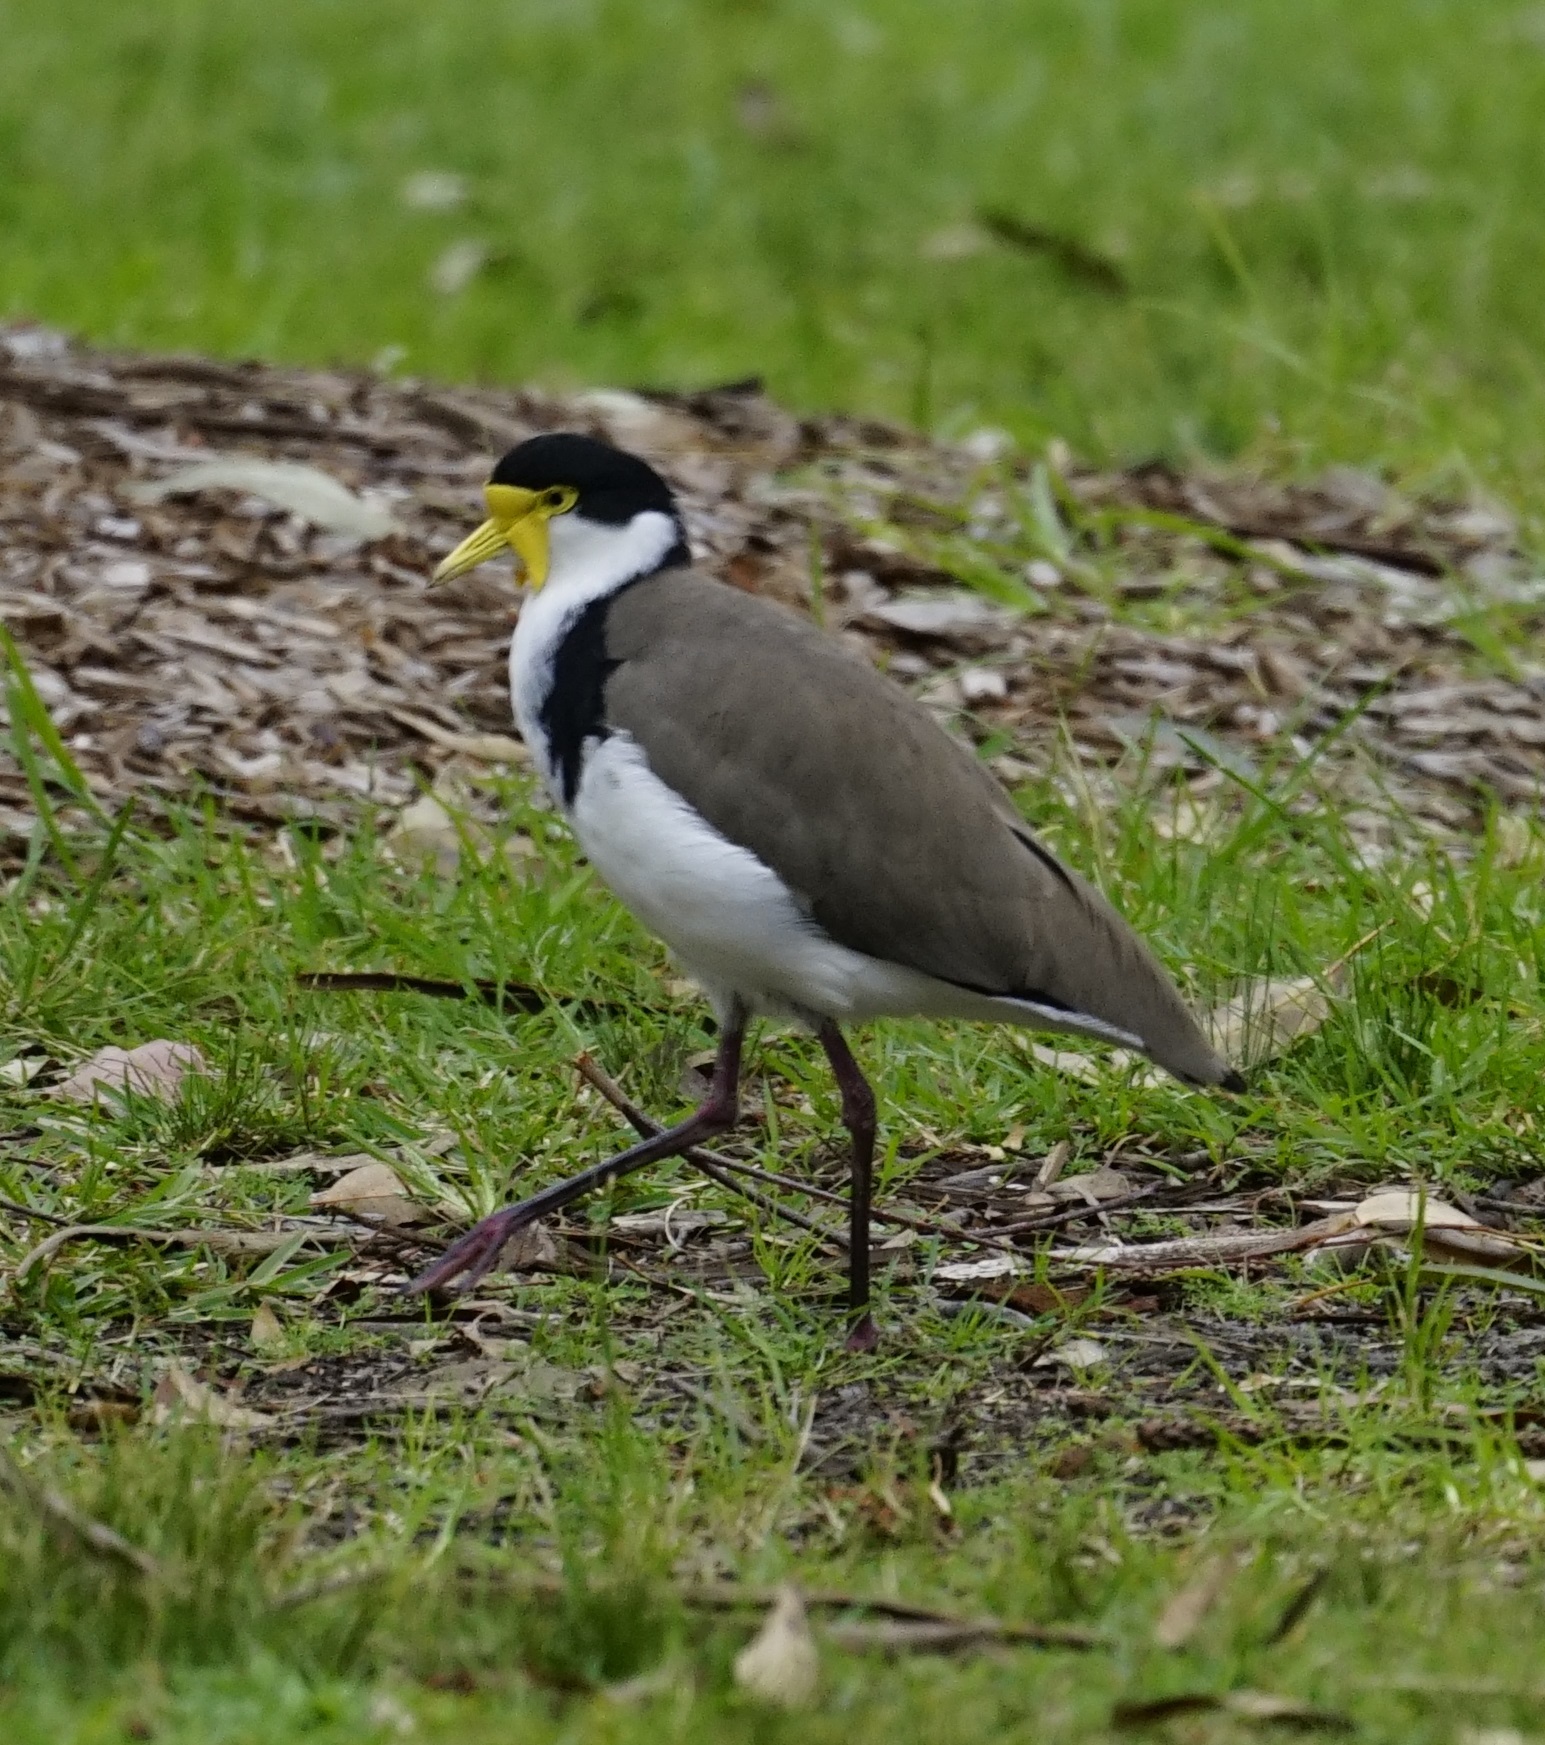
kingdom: Animalia
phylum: Chordata
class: Aves
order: Charadriiformes
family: Charadriidae
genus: Vanellus
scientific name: Vanellus miles
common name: Masked lapwing
